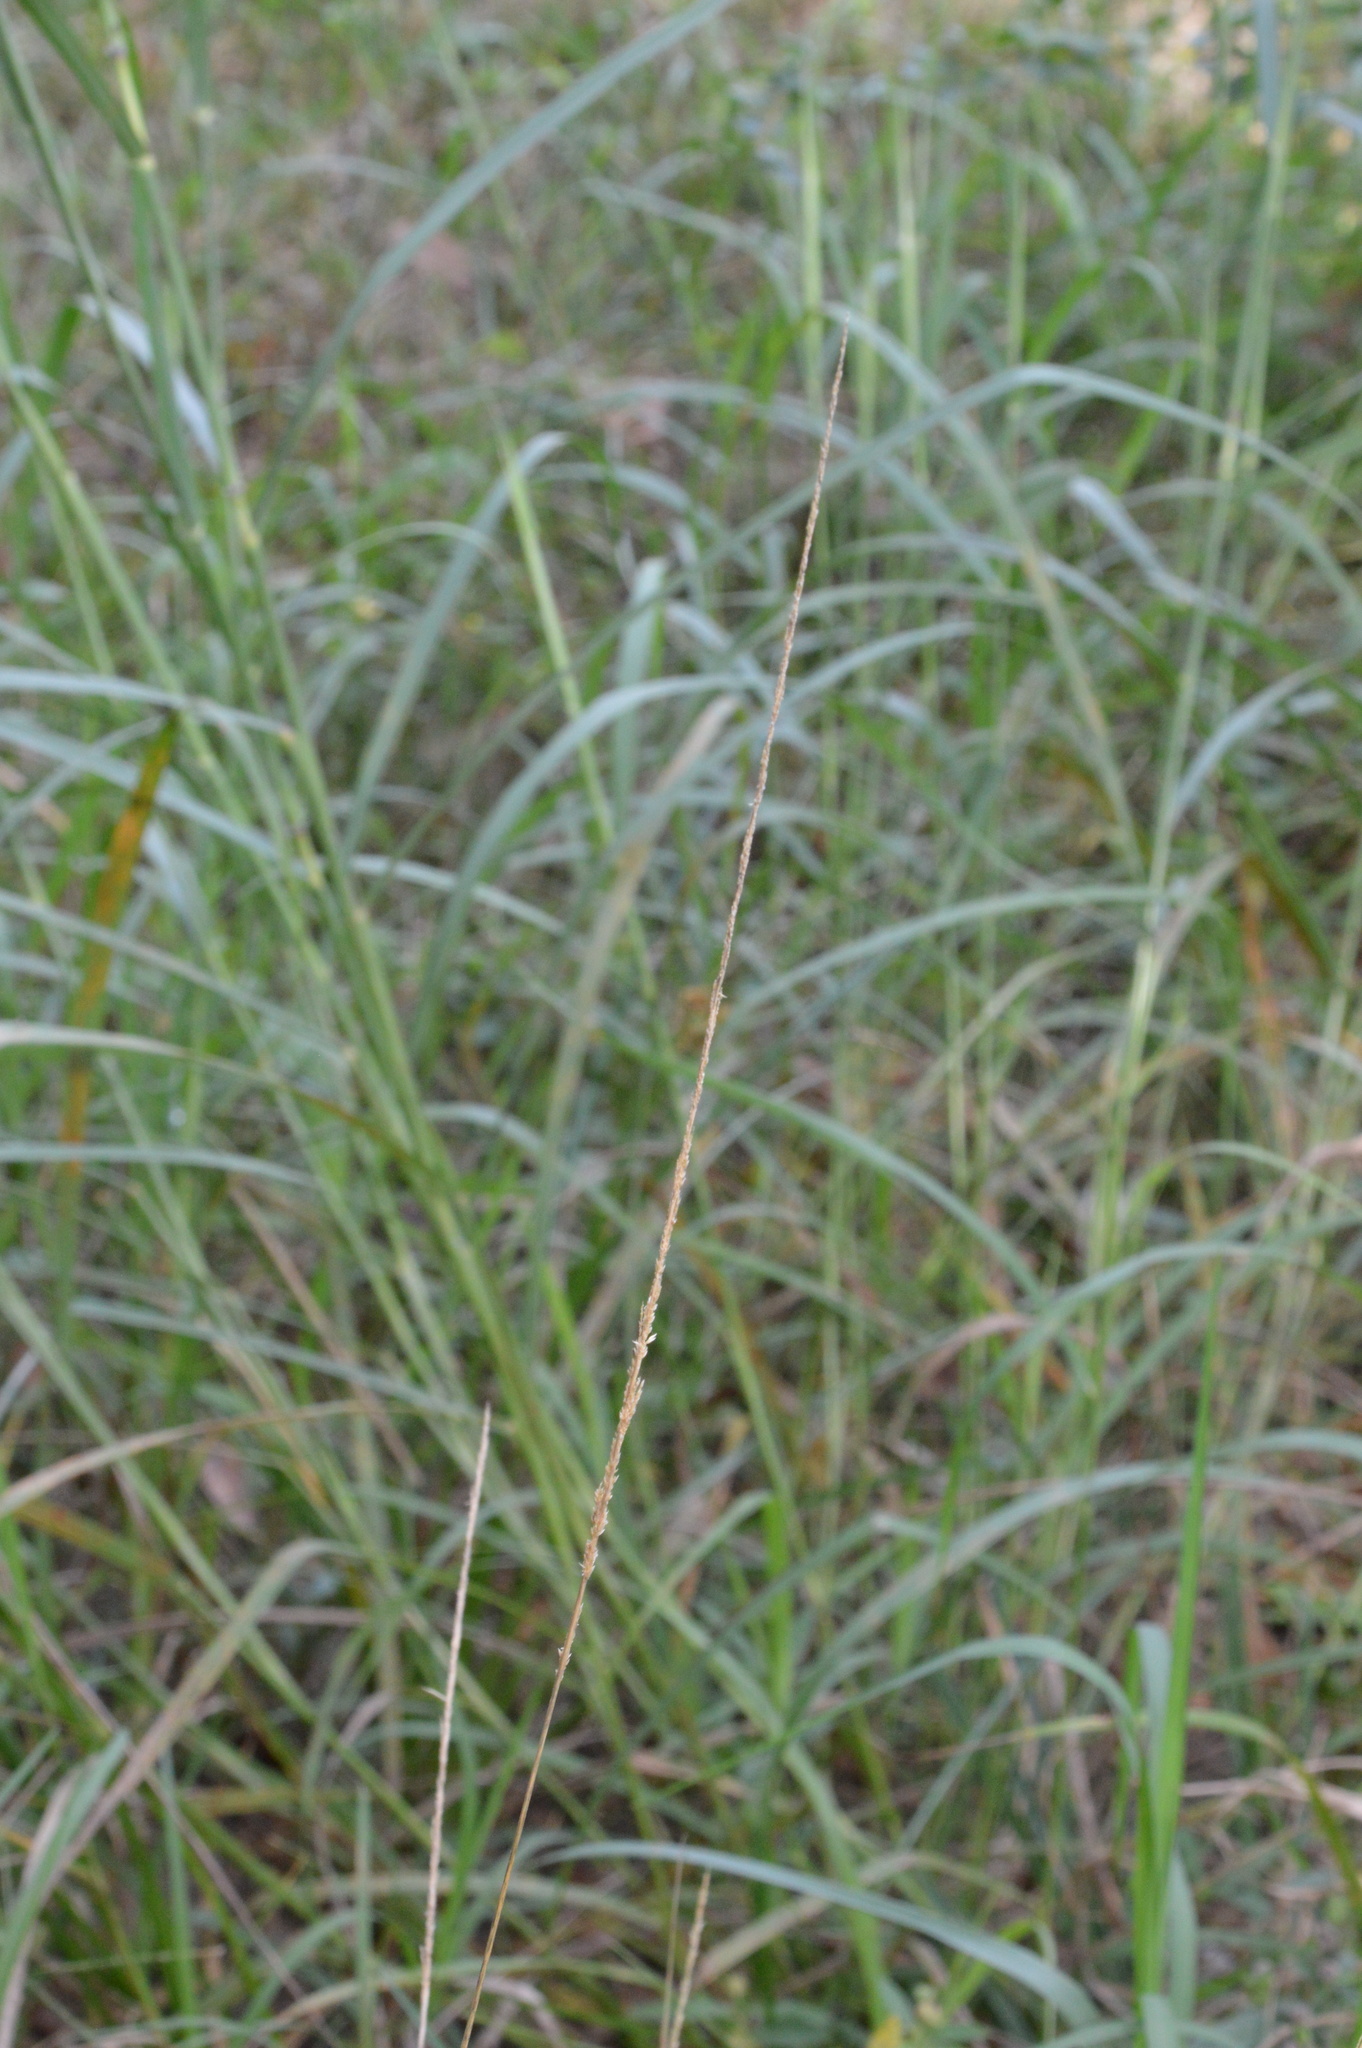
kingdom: Plantae
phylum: Tracheophyta
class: Liliopsida
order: Poales
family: Poaceae
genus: Sporobolus
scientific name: Sporobolus indicus
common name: Smut grass
